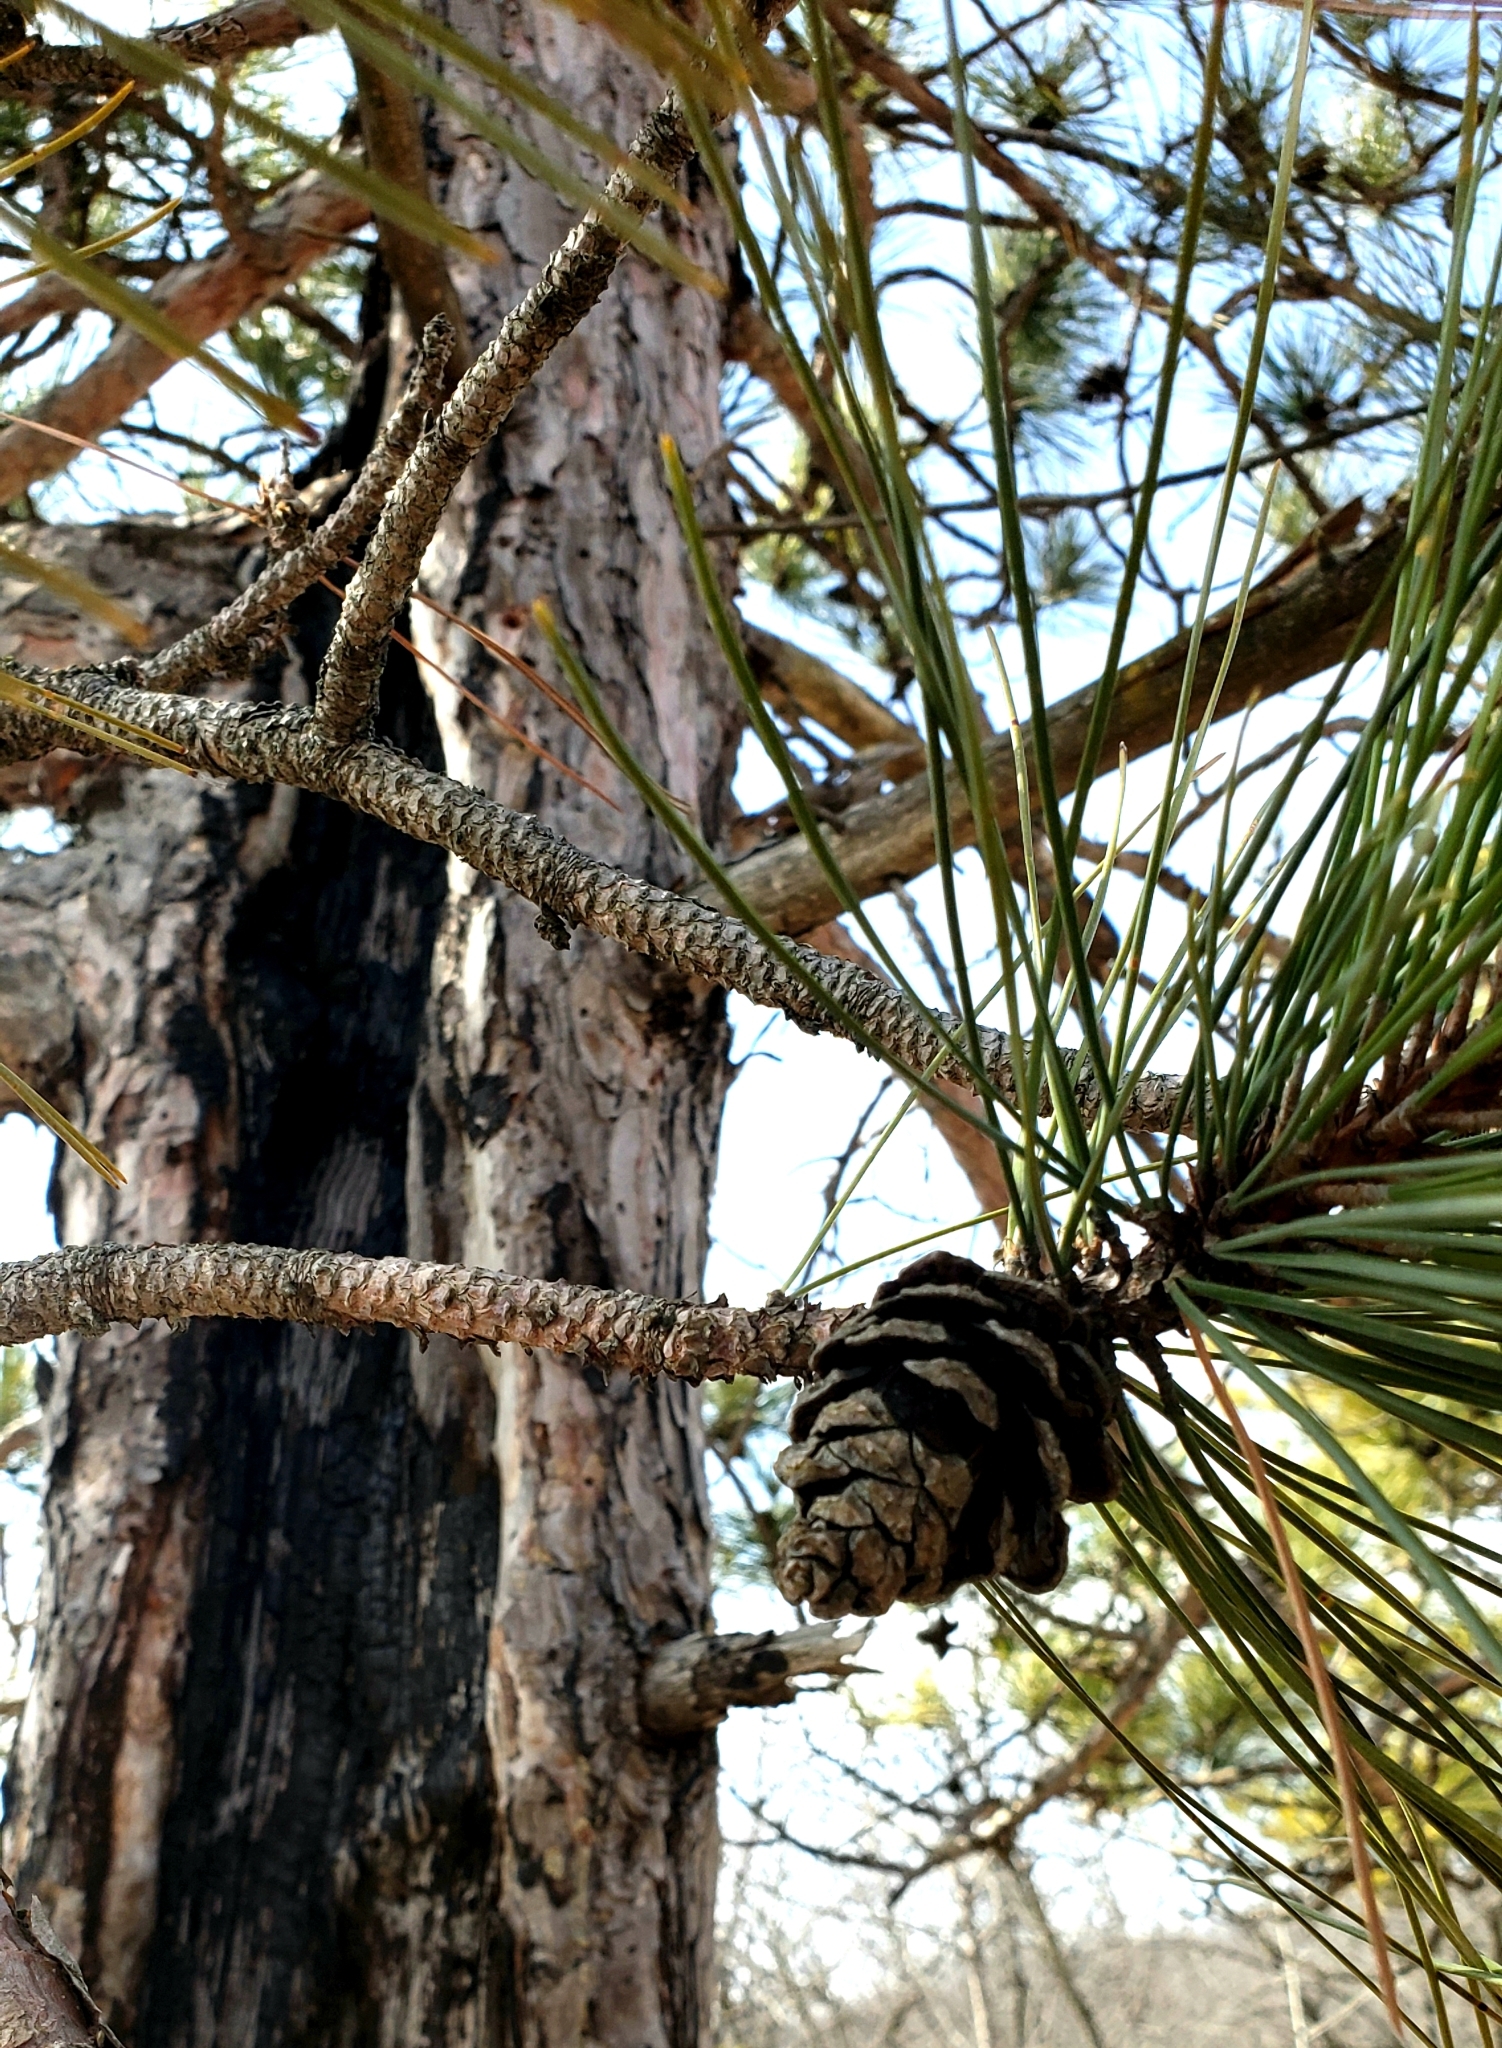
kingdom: Plantae
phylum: Tracheophyta
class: Pinopsida
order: Pinales
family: Pinaceae
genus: Pinus
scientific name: Pinus resinosa
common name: Norway pine
